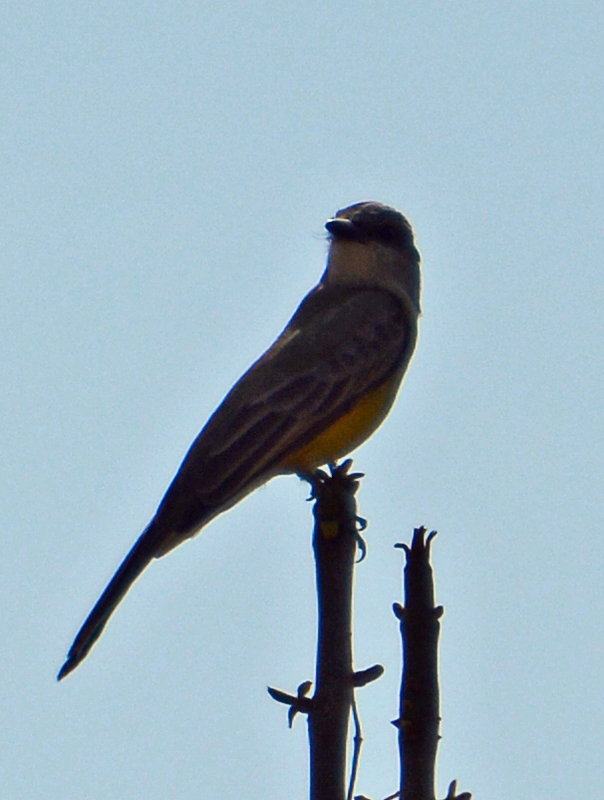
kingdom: Animalia
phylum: Chordata
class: Aves
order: Passeriformes
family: Tyrannidae
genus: Tyrannus
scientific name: Tyrannus vociferans
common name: Cassin's kingbird
